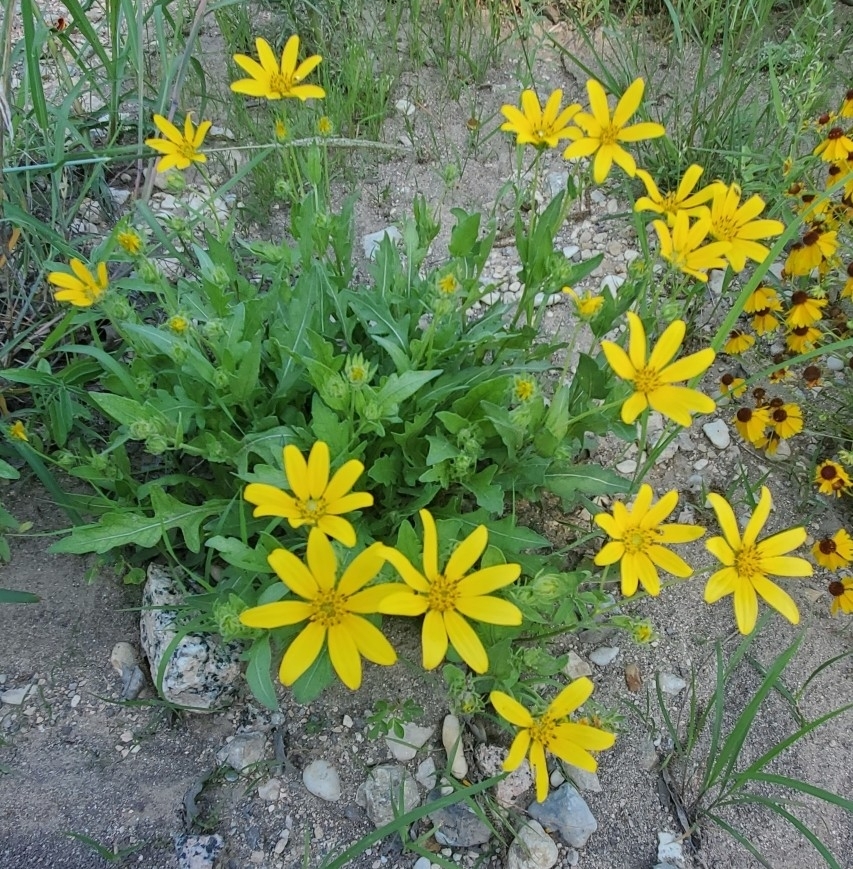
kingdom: Plantae
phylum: Tracheophyta
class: Magnoliopsida
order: Asterales
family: Asteraceae
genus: Engelmannia
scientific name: Engelmannia peristenia
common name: Engelmann's daisy
